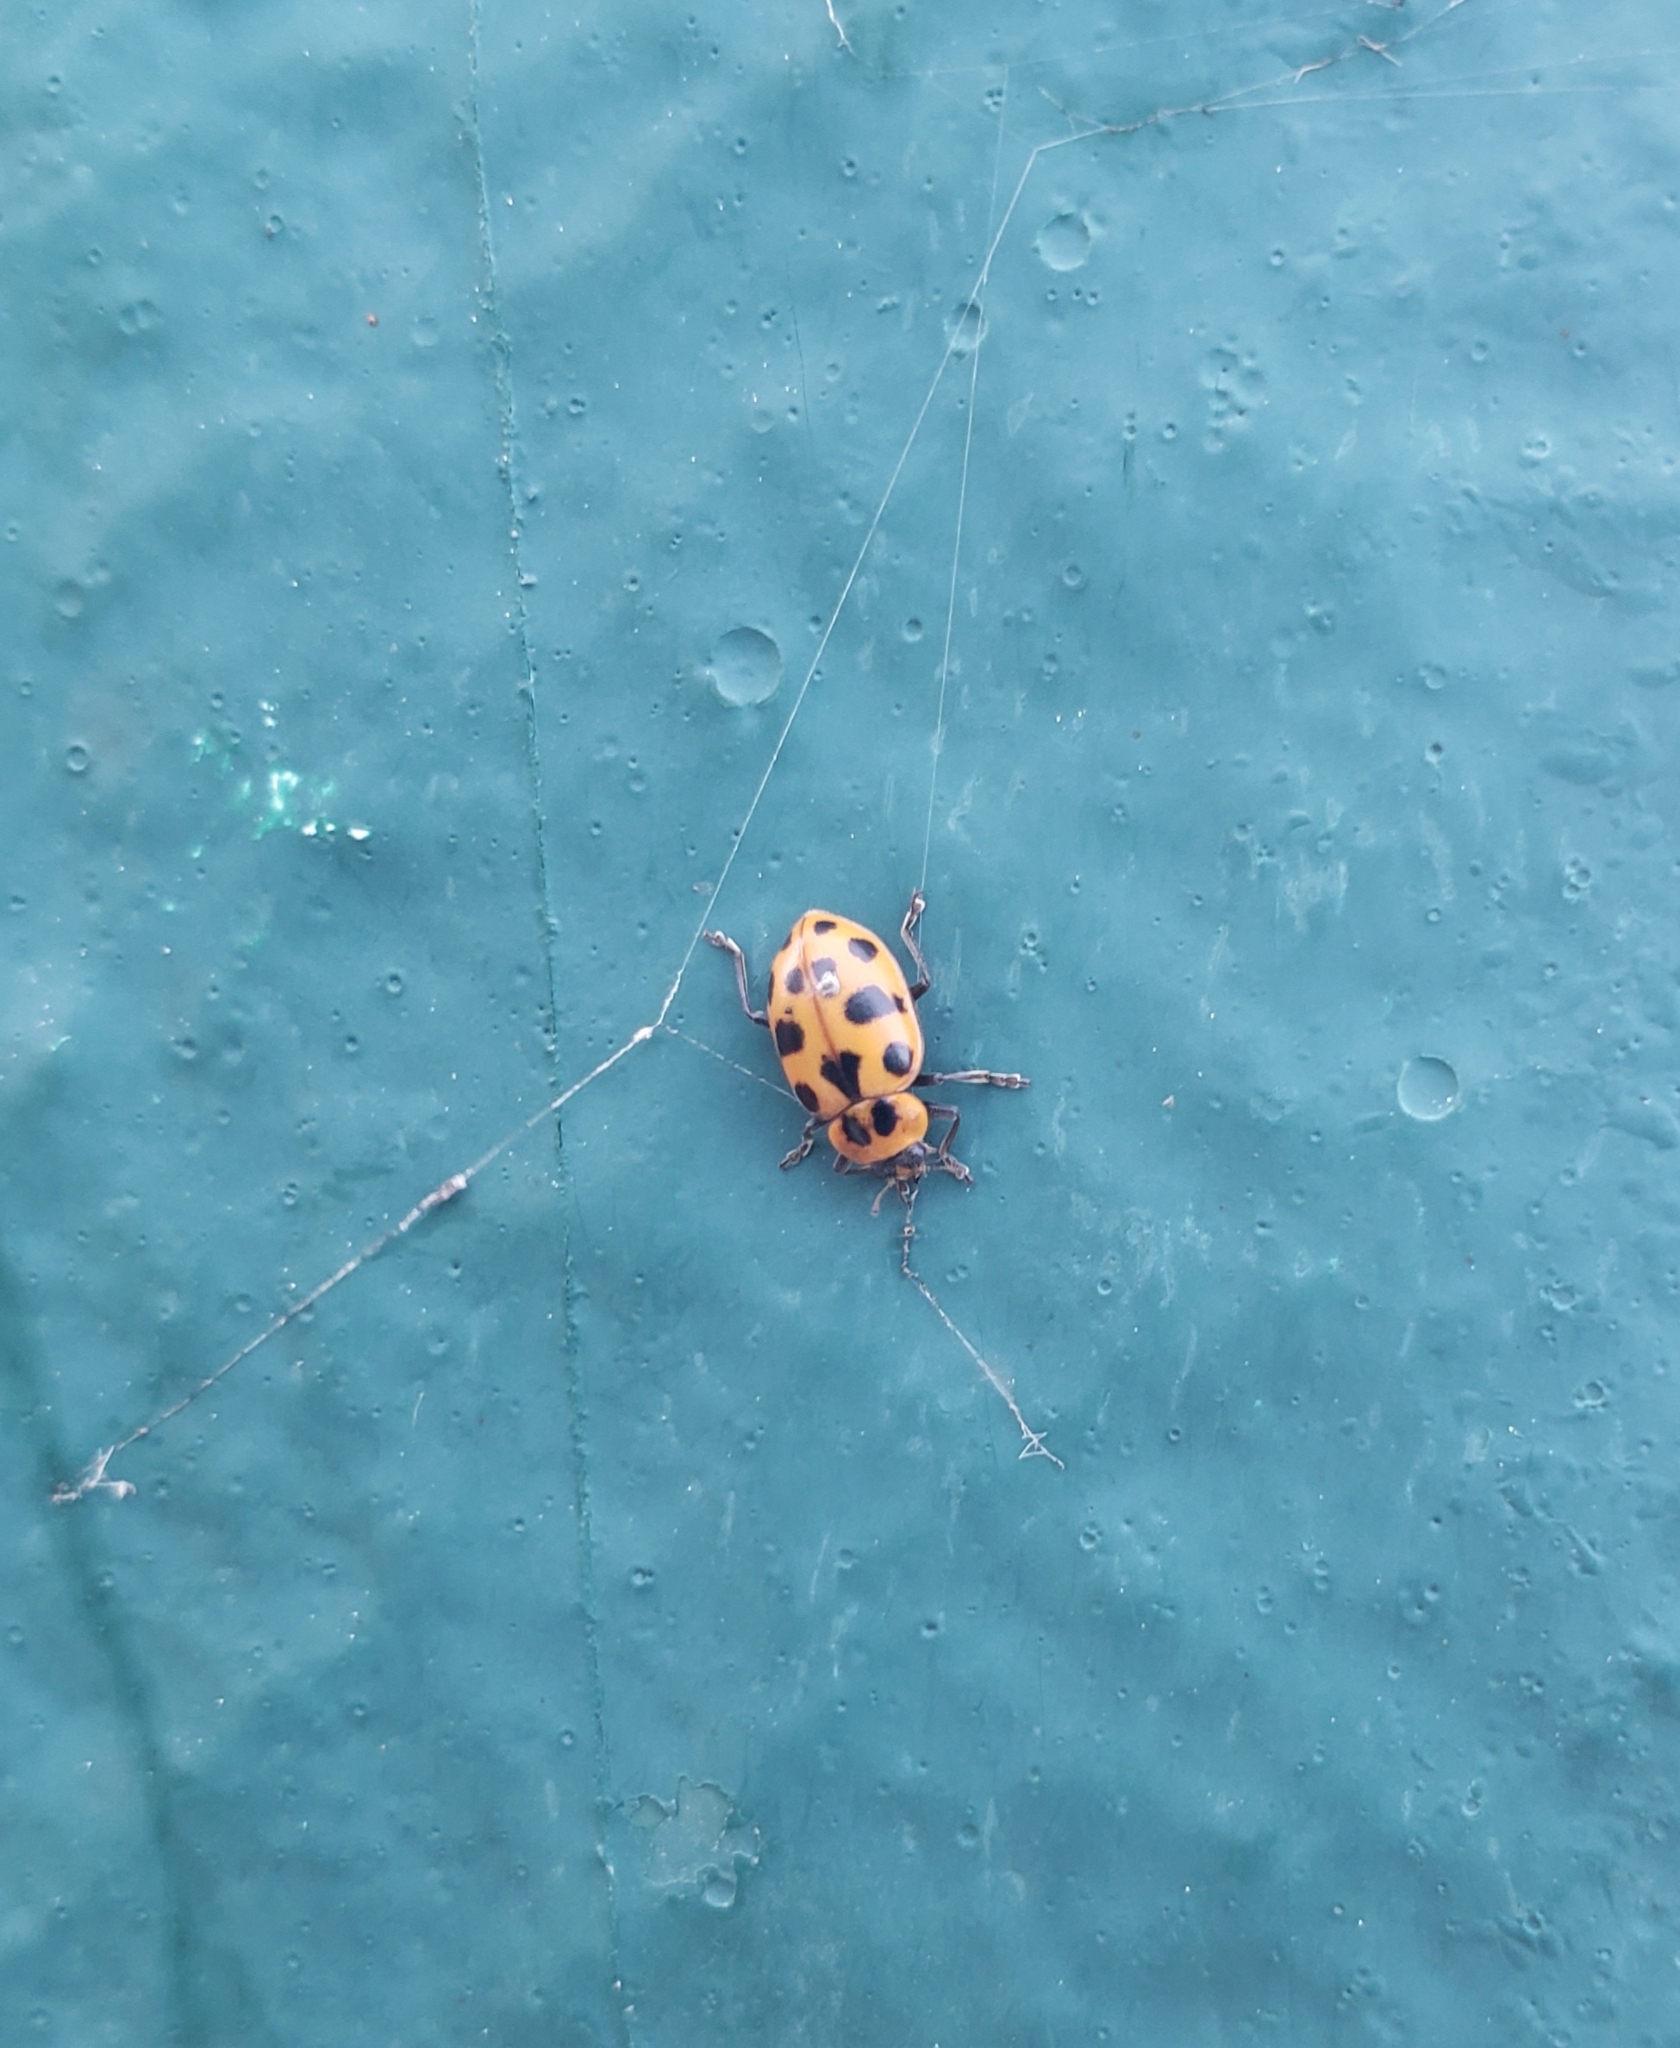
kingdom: Animalia
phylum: Arthropoda
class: Insecta
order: Coleoptera
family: Coccinellidae
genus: Coleomegilla
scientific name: Coleomegilla maculata
